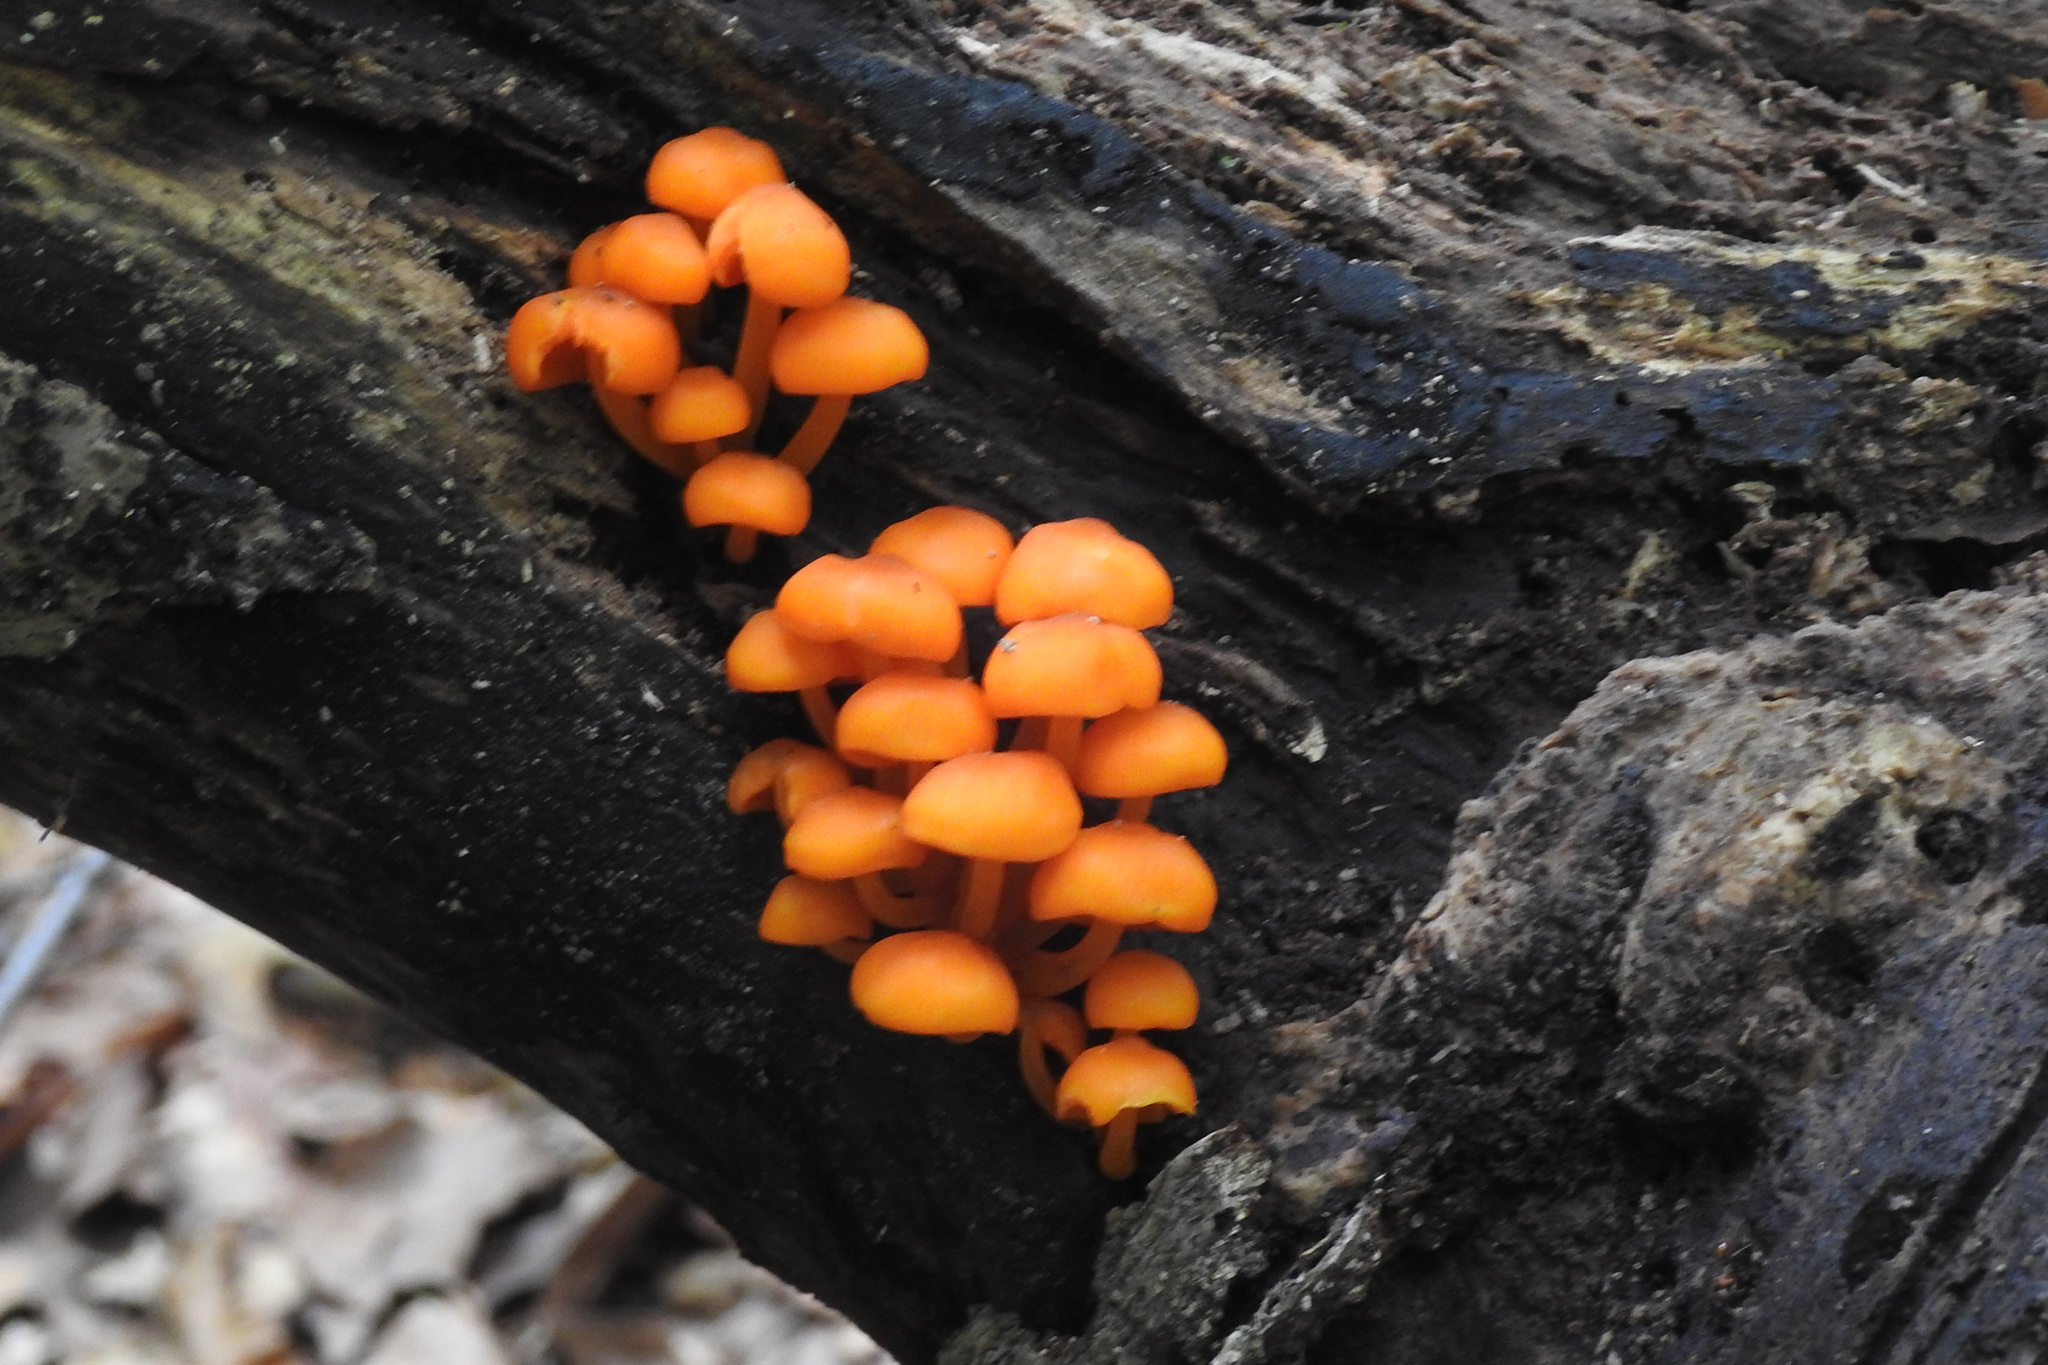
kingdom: Fungi
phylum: Basidiomycota
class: Agaricomycetes
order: Agaricales
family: Mycenaceae
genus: Mycena
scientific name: Mycena leaiana
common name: Orange mycena
